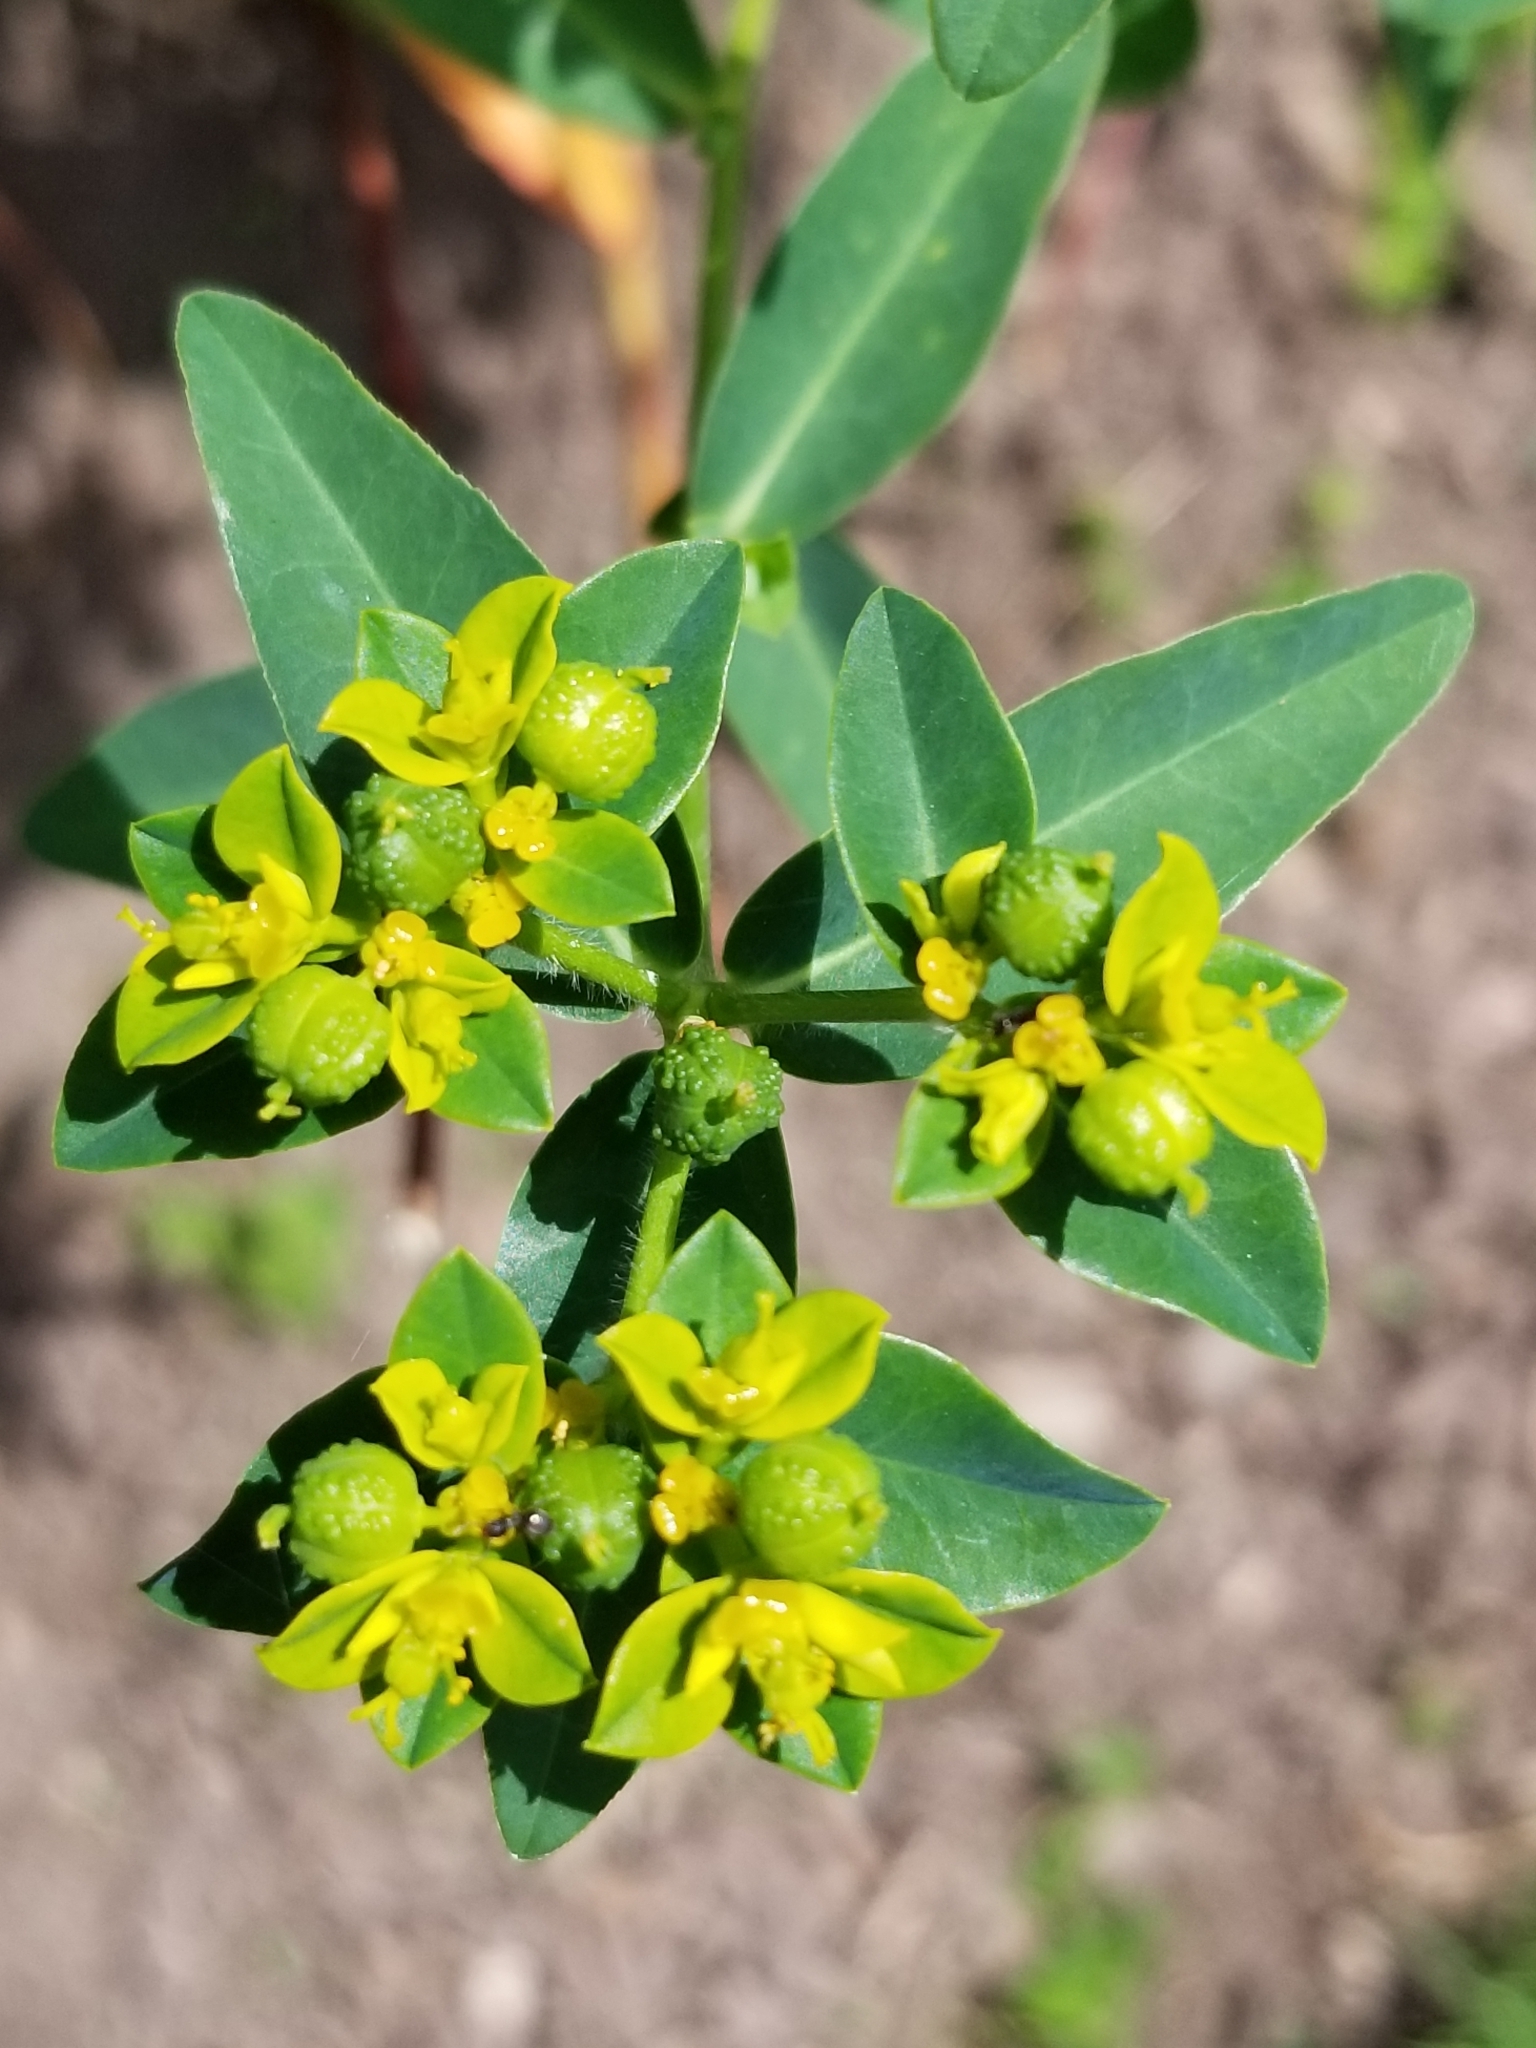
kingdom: Plantae
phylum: Tracheophyta
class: Magnoliopsida
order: Malpighiales
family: Euphorbiaceae
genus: Euphorbia
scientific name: Euphorbia oblongata
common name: Balkan spurge
